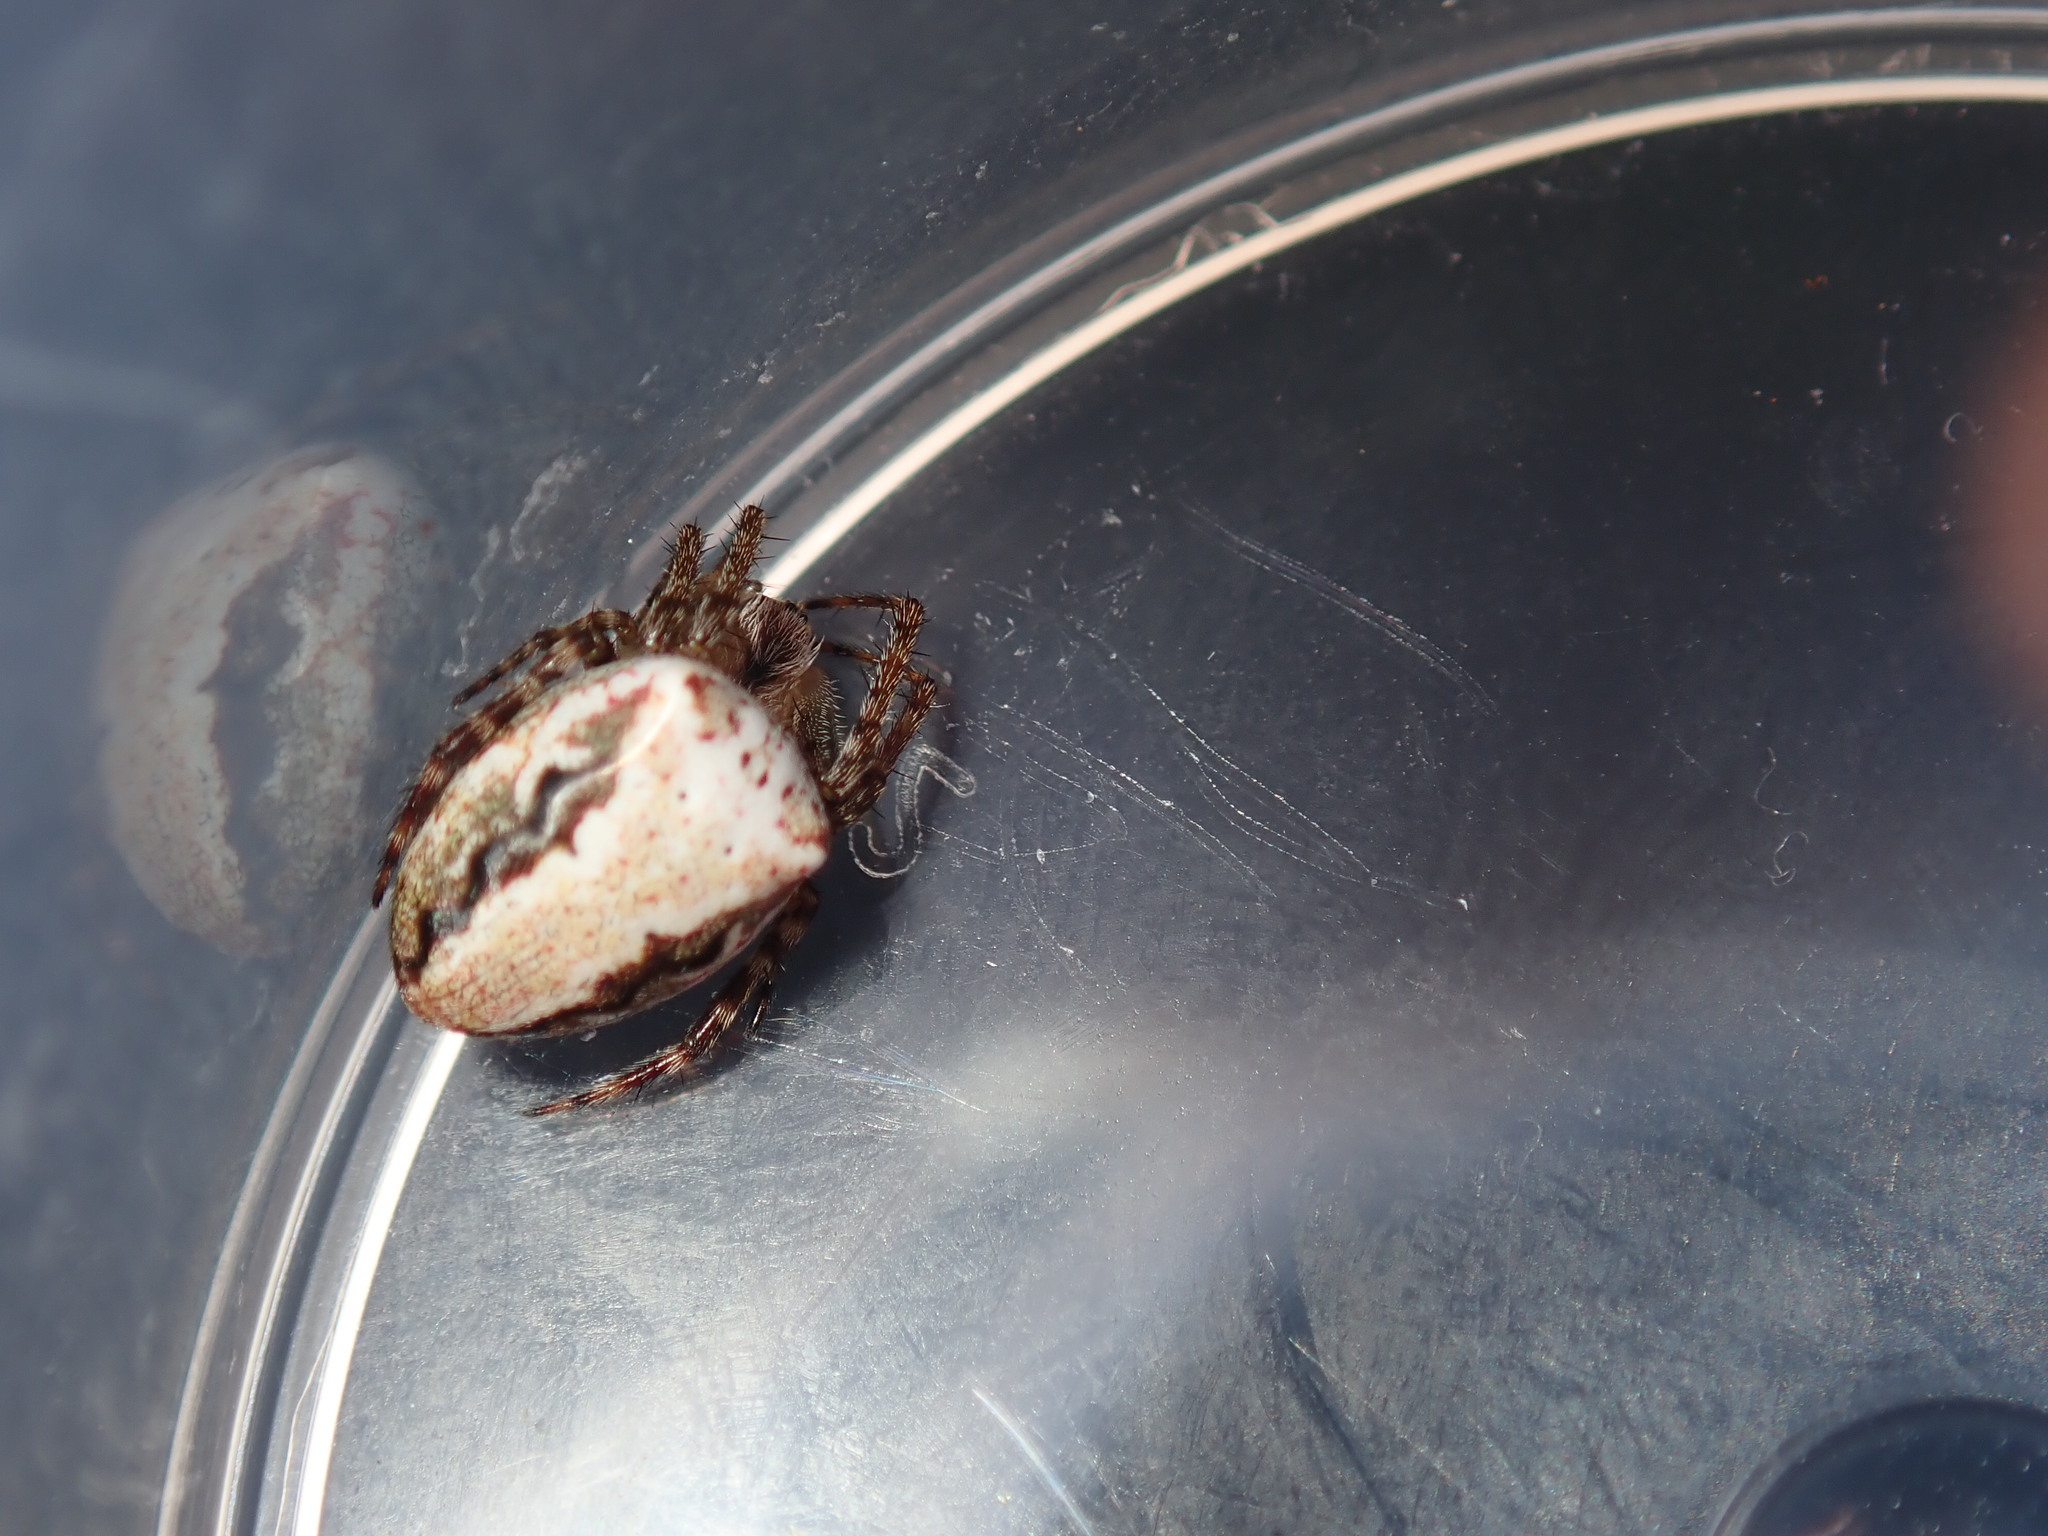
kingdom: Animalia
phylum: Arthropoda
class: Arachnida
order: Araneae
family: Araneidae
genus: Plebs
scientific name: Plebs eburnus
